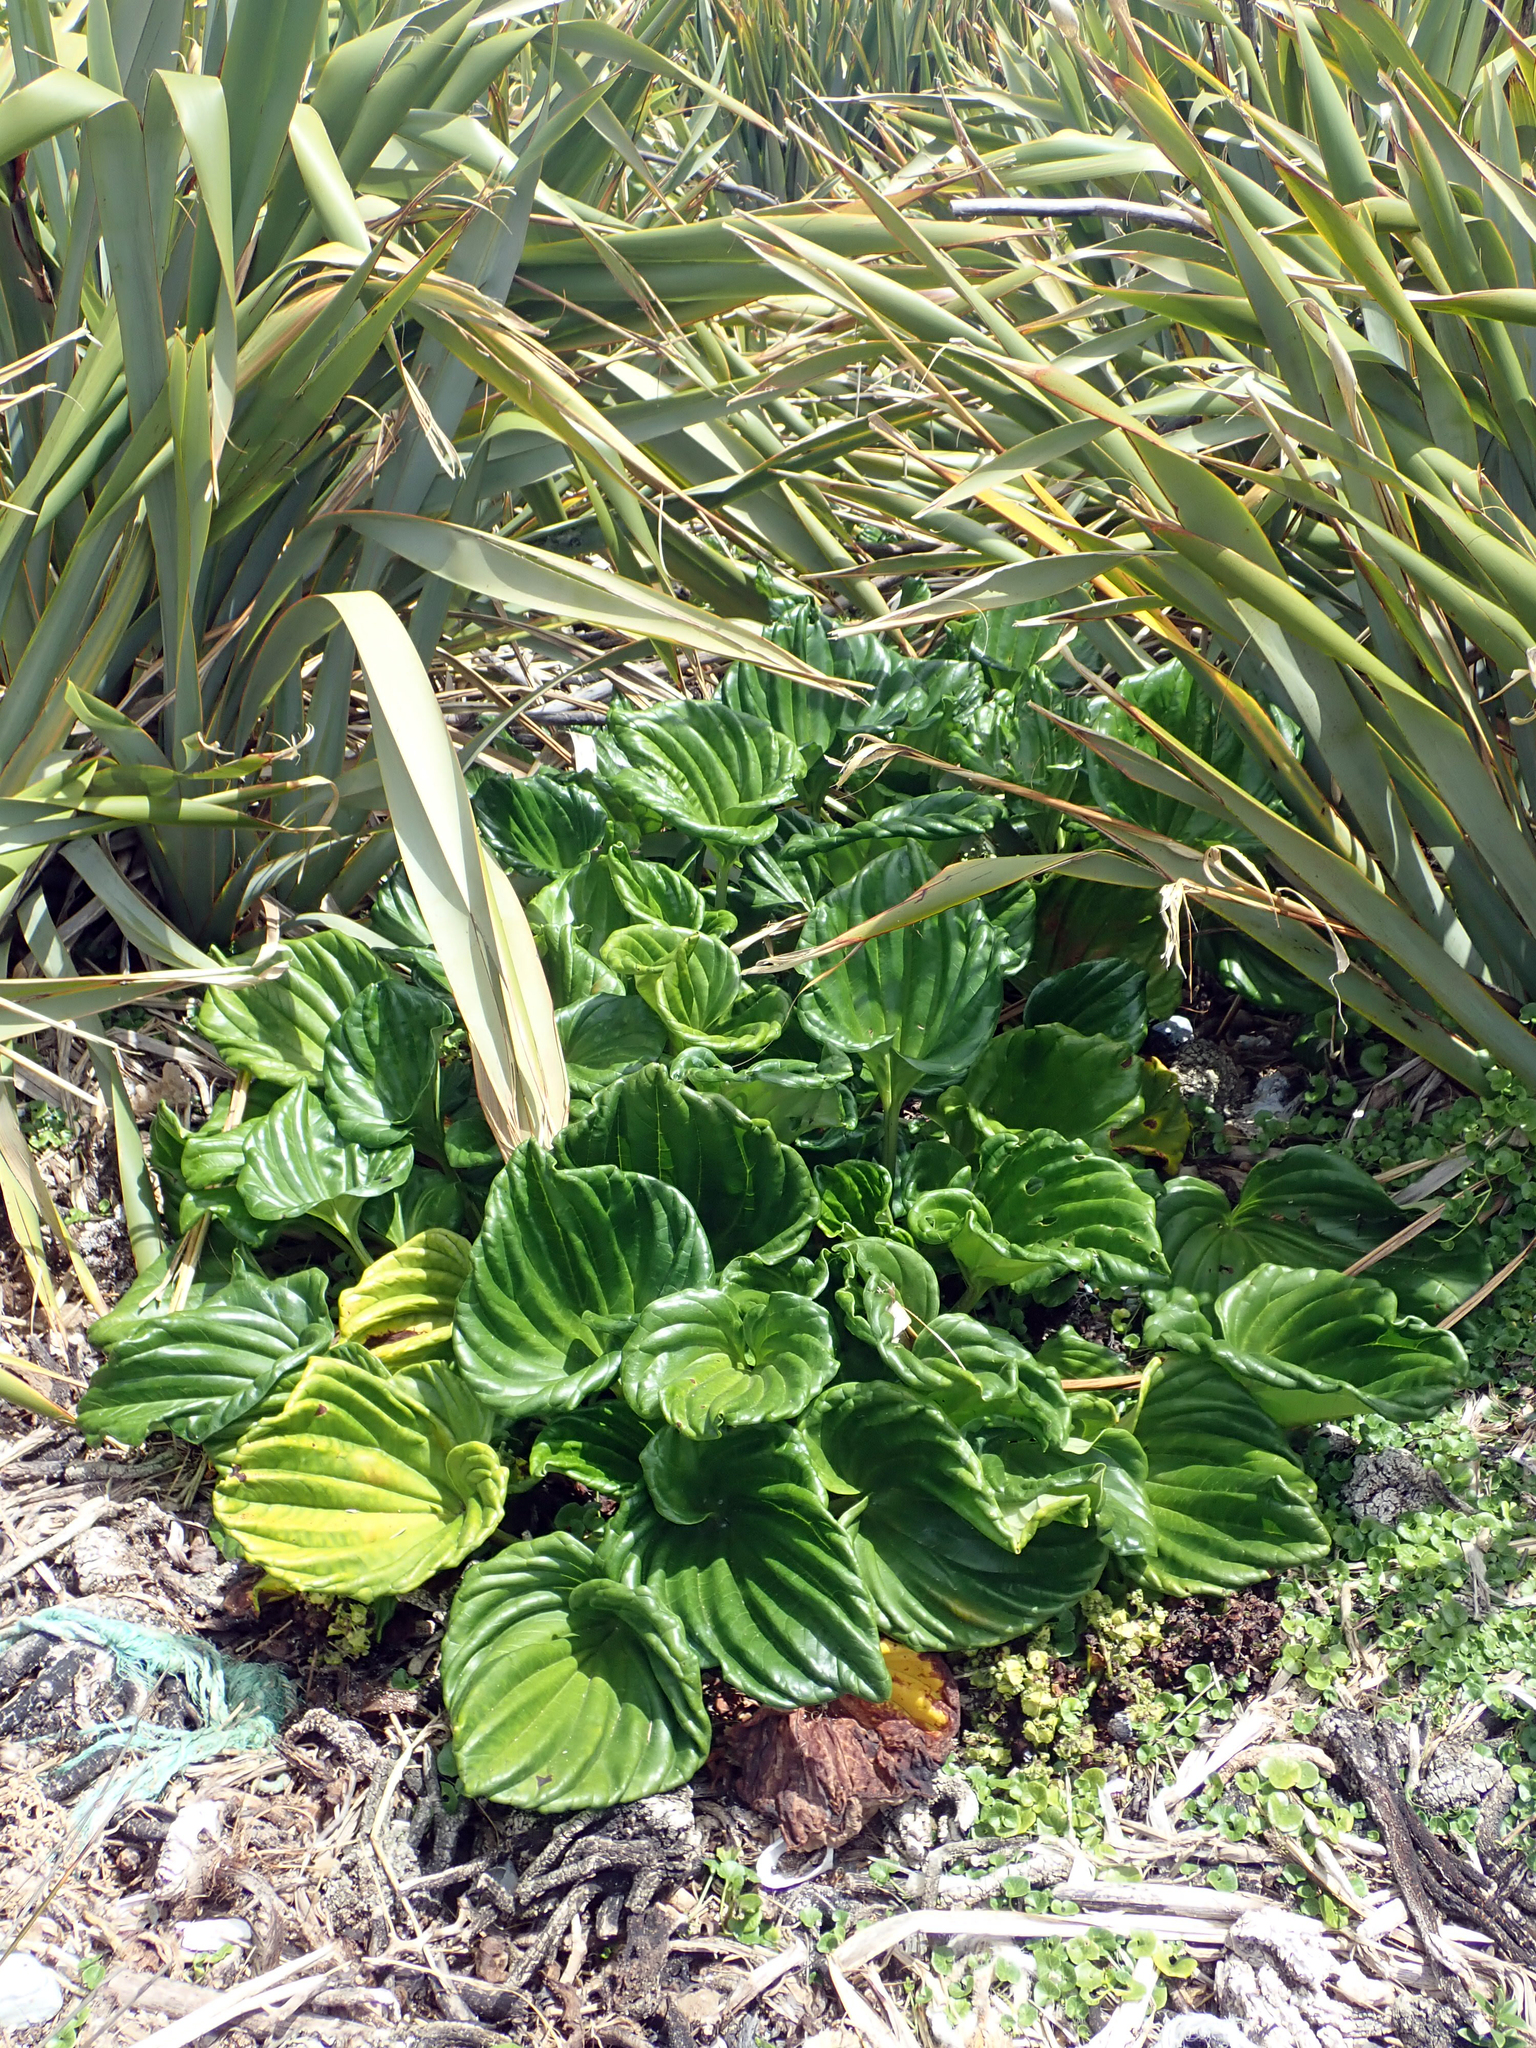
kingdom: Plantae
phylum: Tracheophyta
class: Magnoliopsida
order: Boraginales
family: Boraginaceae
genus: Myosotidium
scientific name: Myosotidium hortensia
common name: Giant forget-me-not
